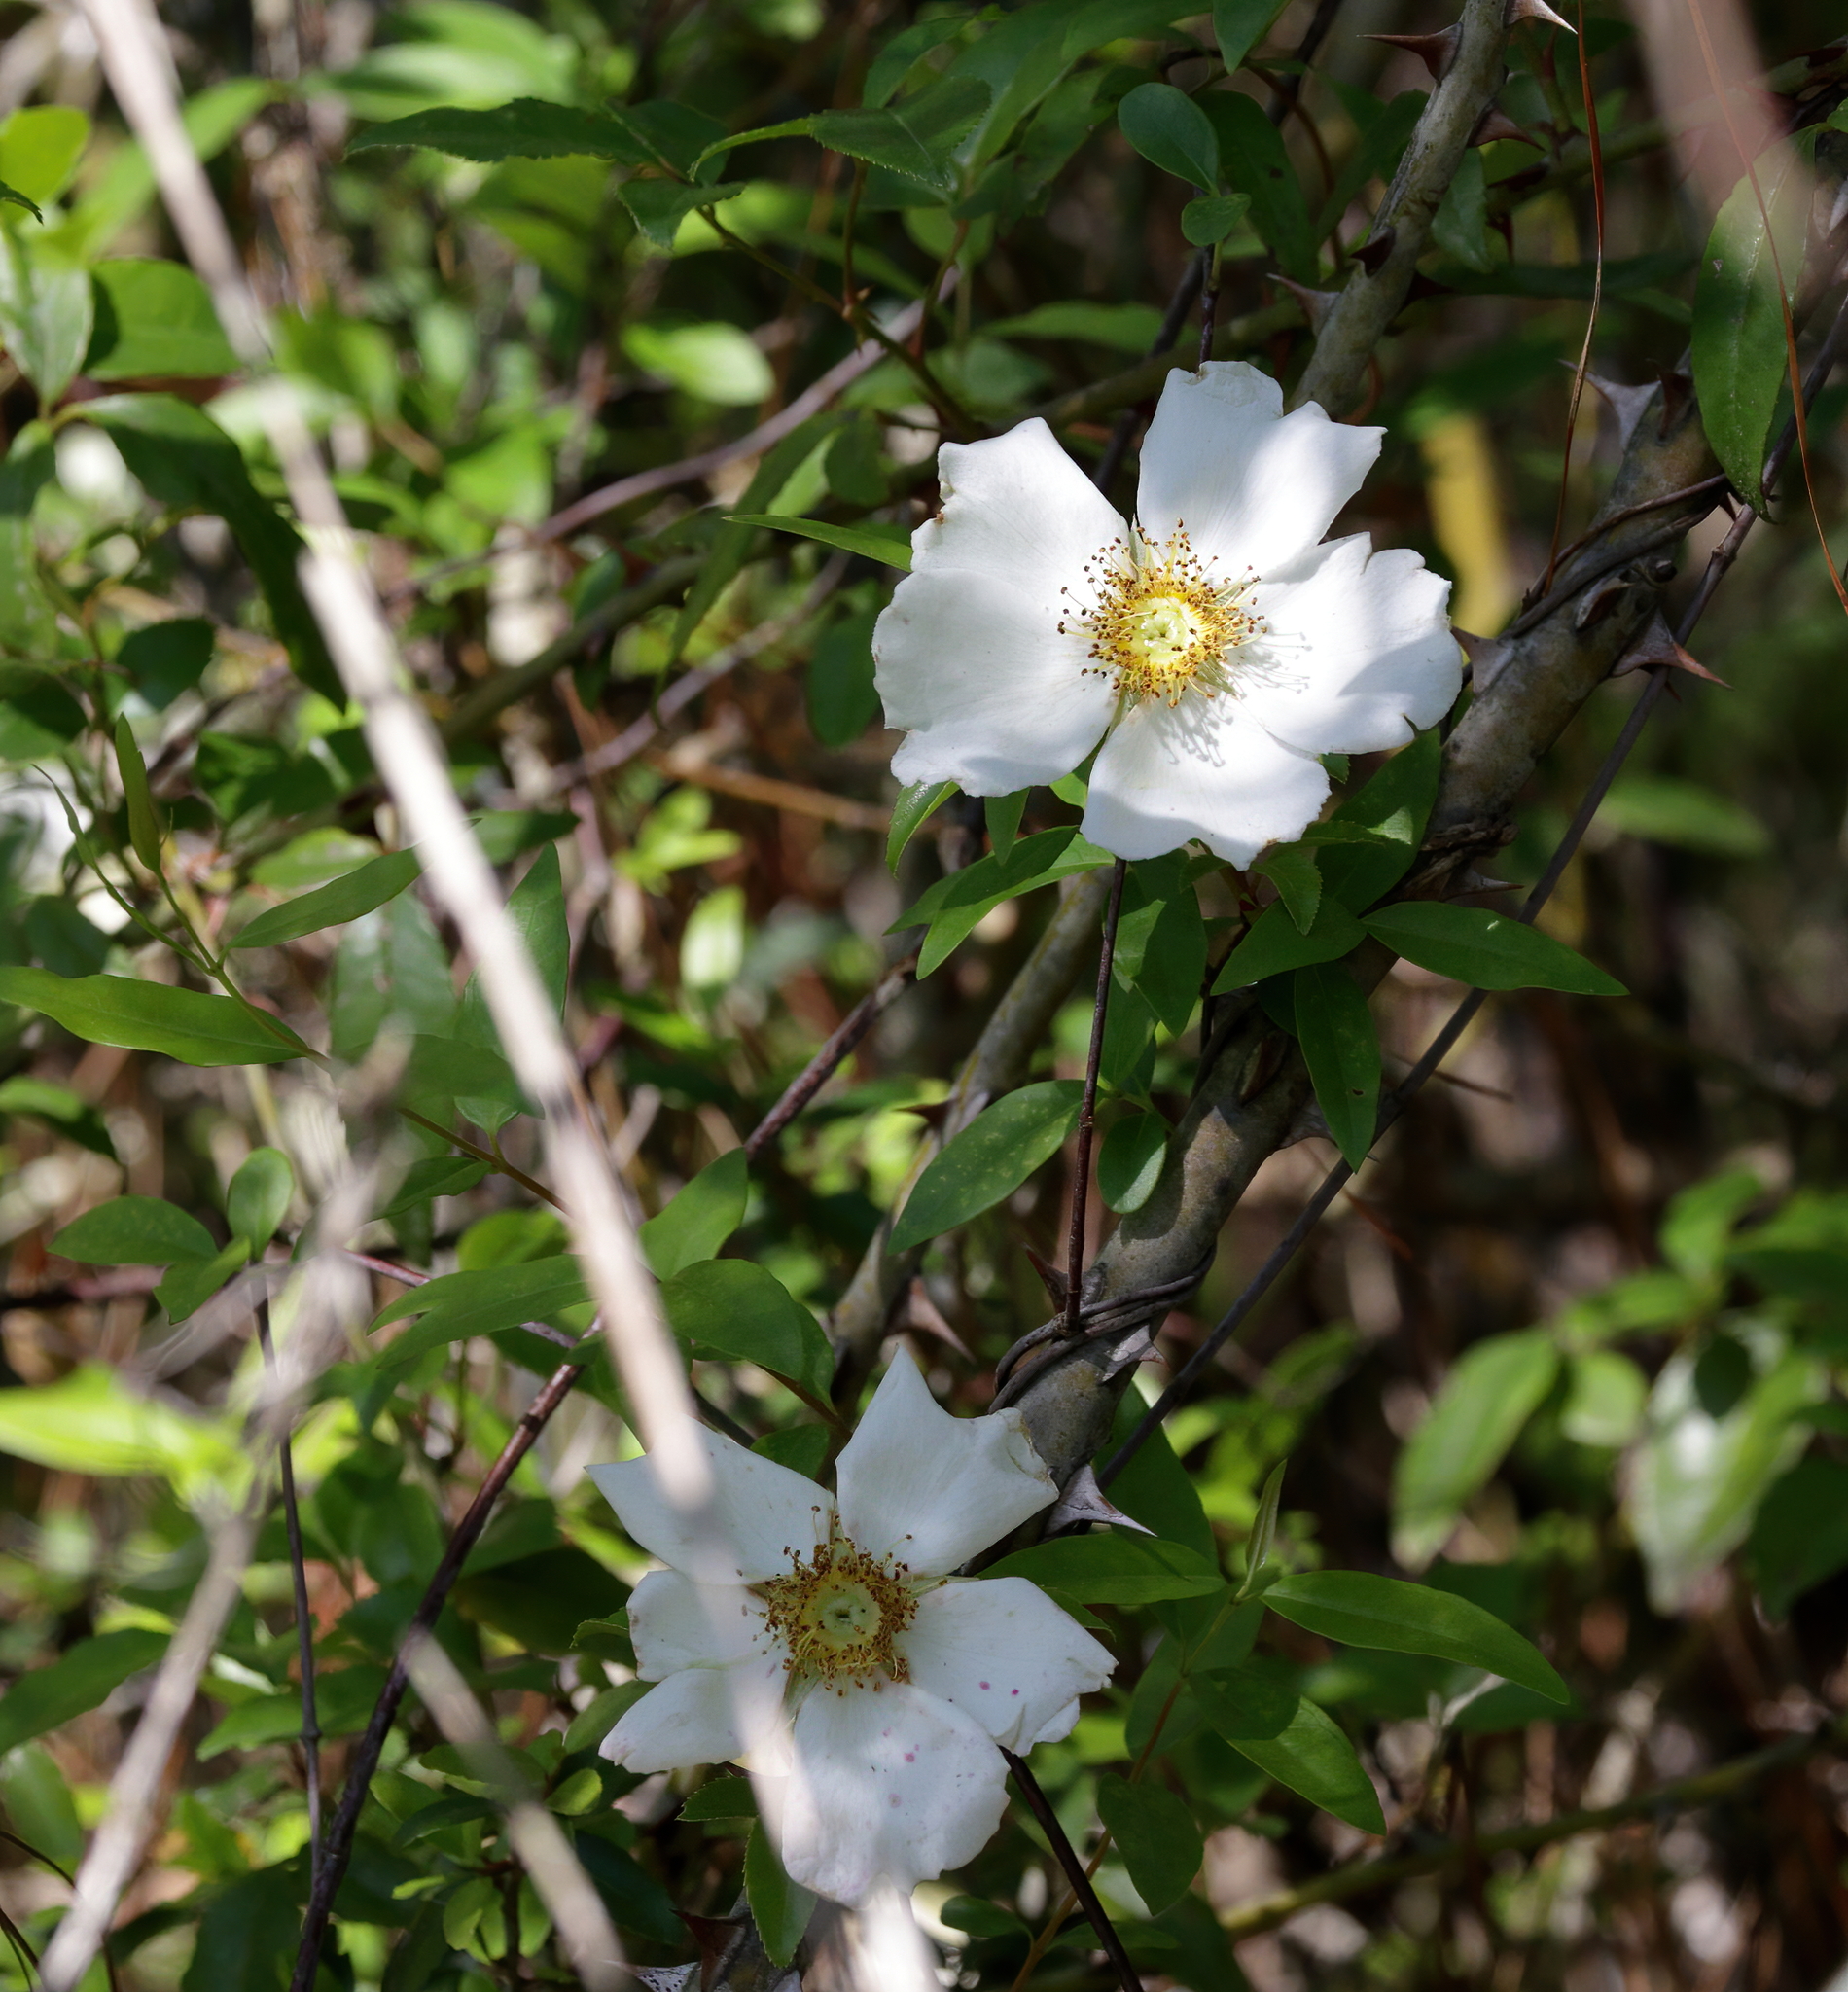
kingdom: Plantae
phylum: Tracheophyta
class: Magnoliopsida
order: Rosales
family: Rosaceae
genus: Rosa
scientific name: Rosa laevigata
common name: Cherokee rose
